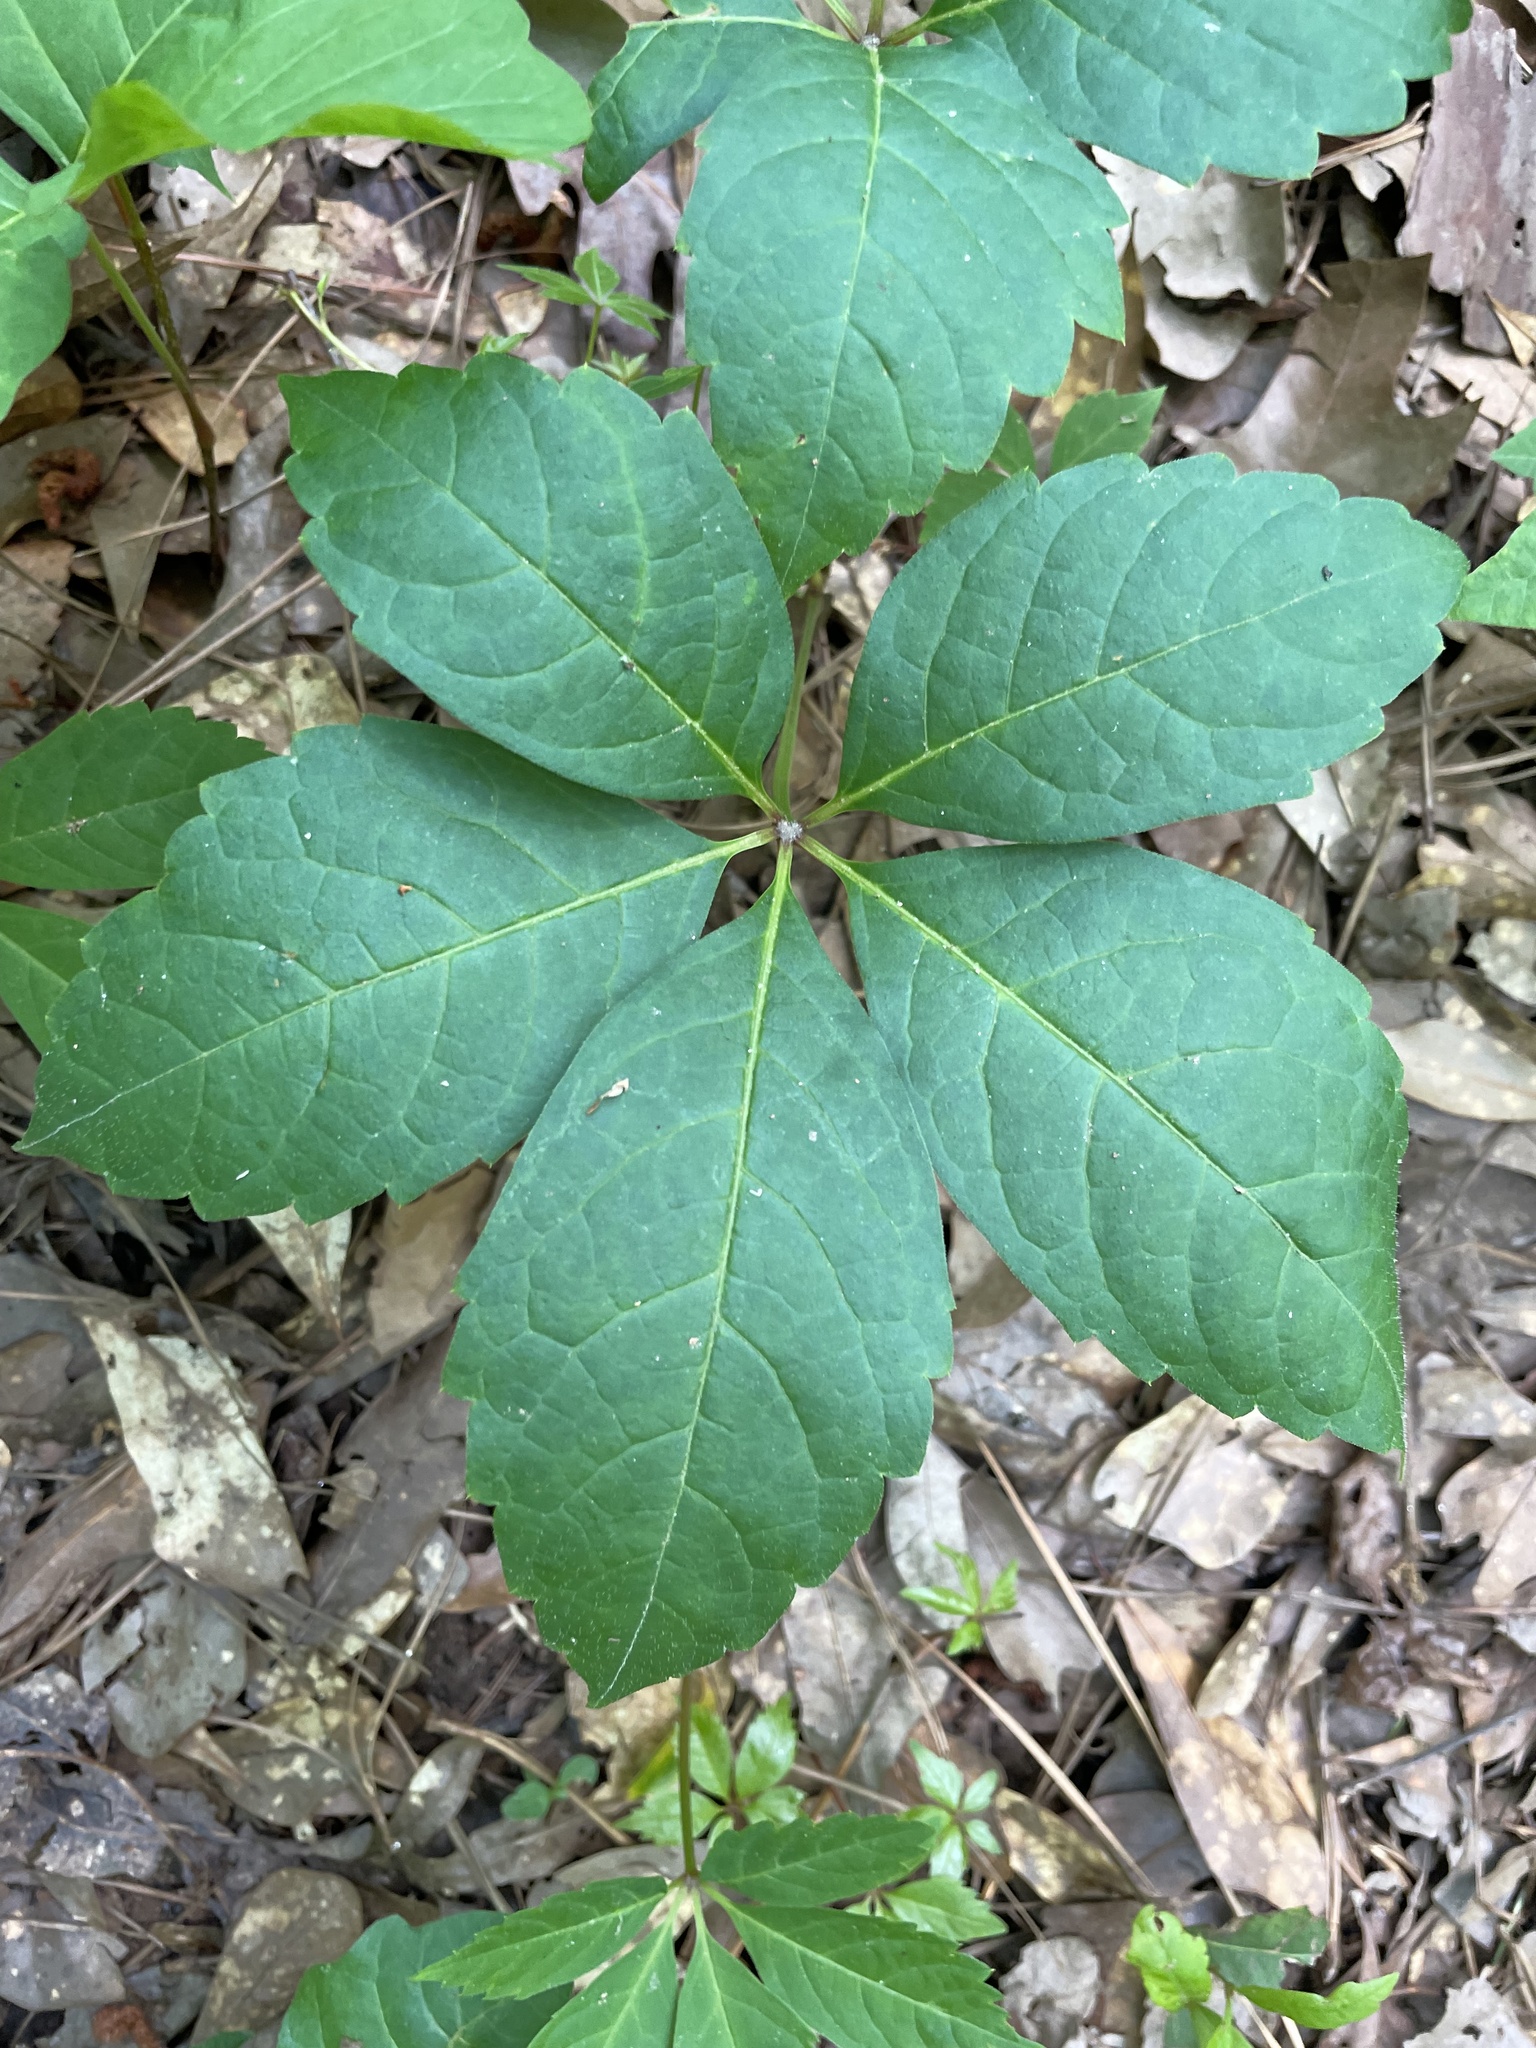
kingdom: Plantae
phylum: Tracheophyta
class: Magnoliopsida
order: Vitales
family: Vitaceae
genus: Parthenocissus
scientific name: Parthenocissus quinquefolia
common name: Virginia-creeper
